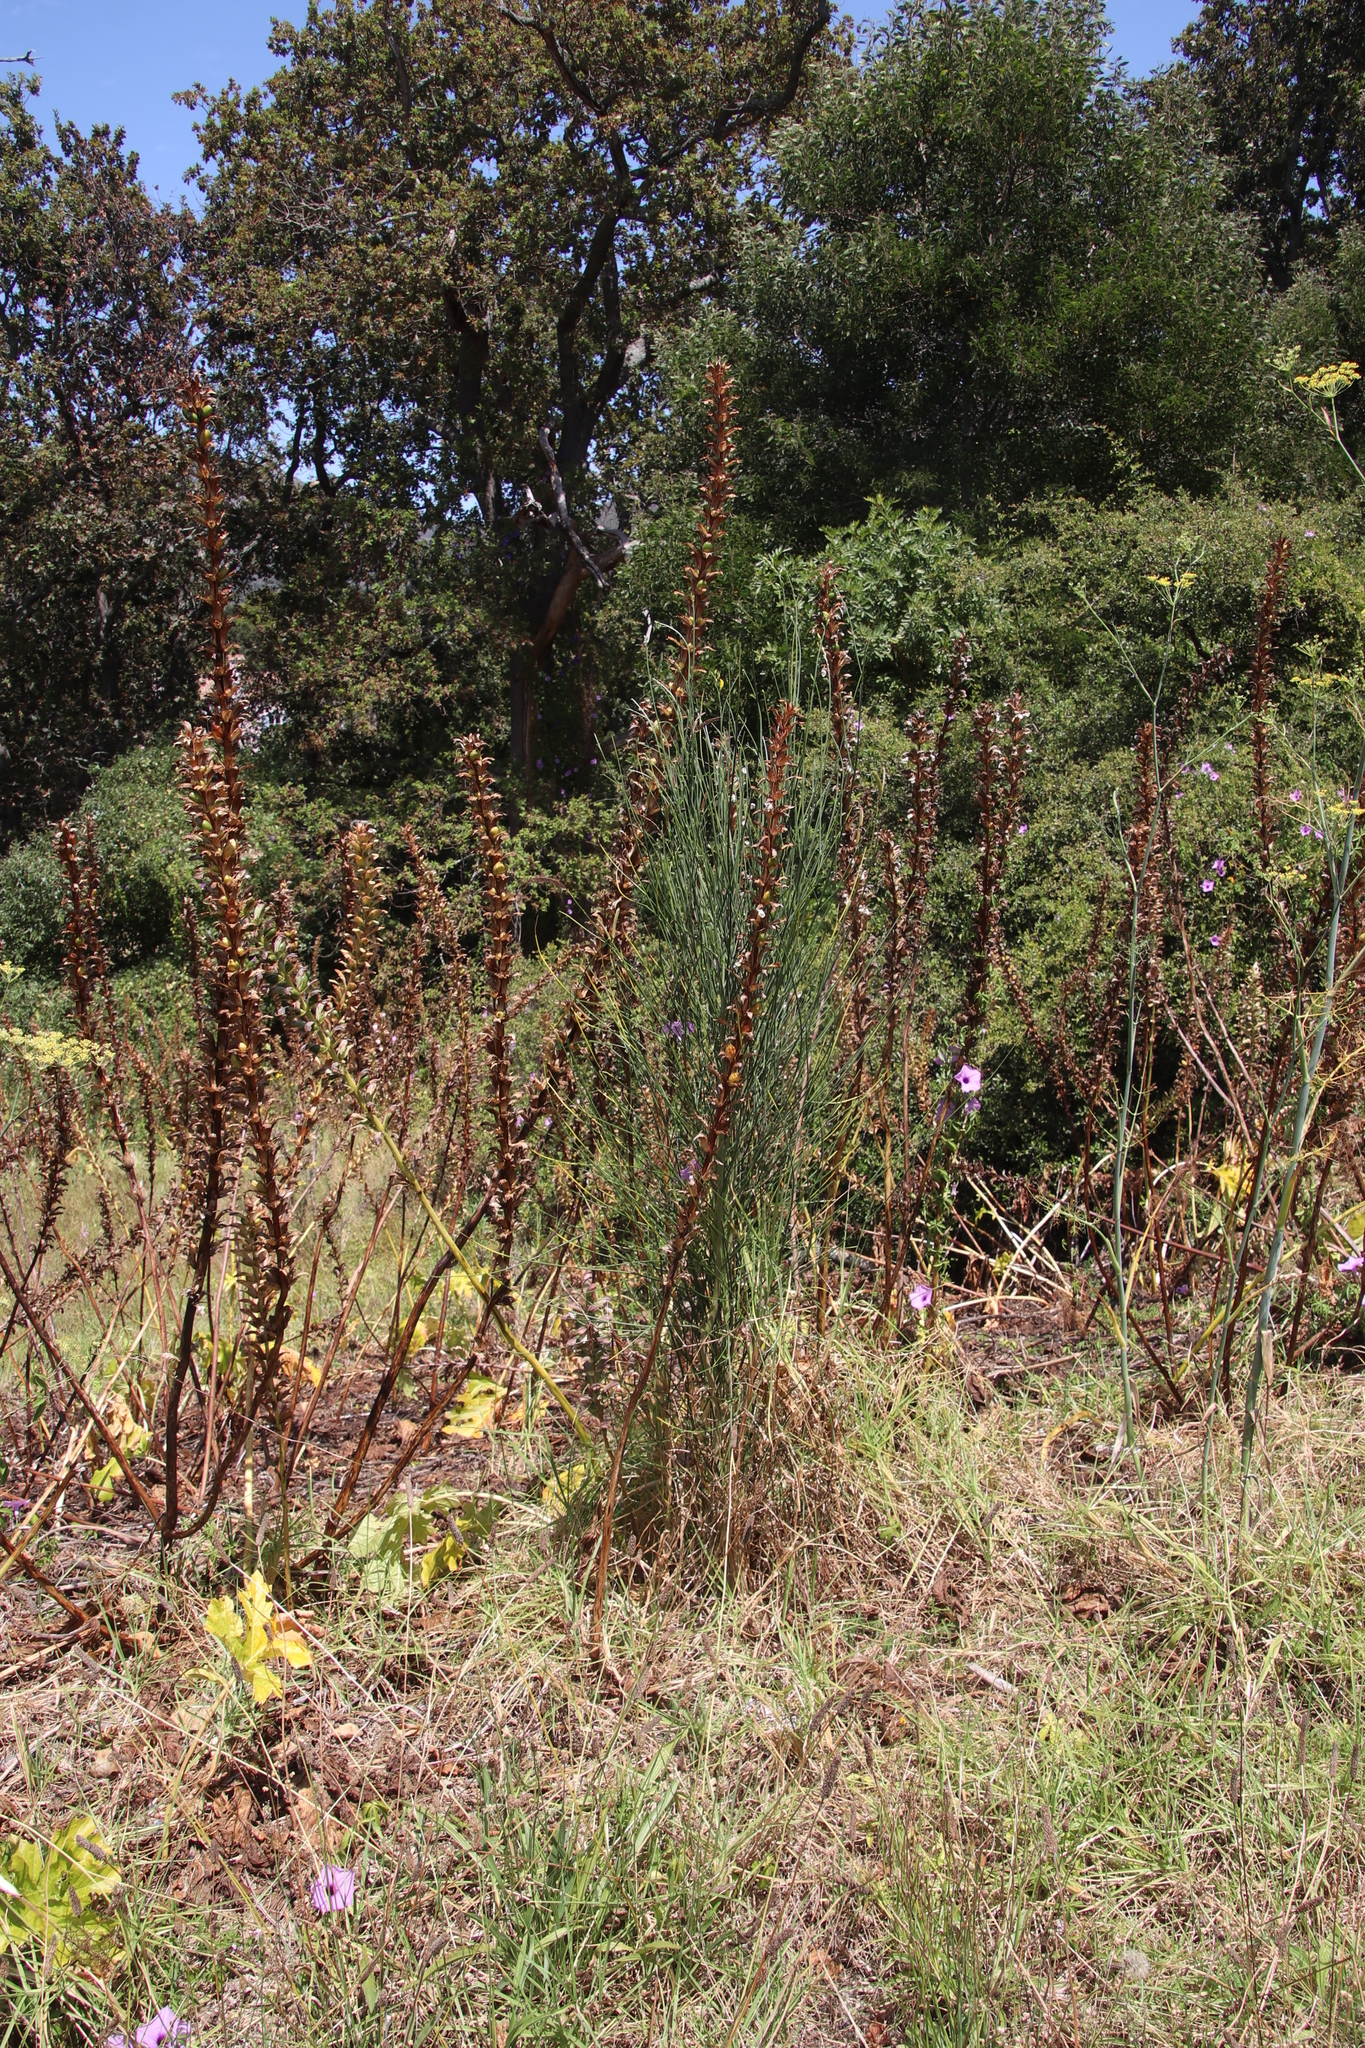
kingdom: Plantae
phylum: Tracheophyta
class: Magnoliopsida
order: Fabales
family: Fabaceae
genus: Spartium
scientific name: Spartium junceum
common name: Spanish broom
